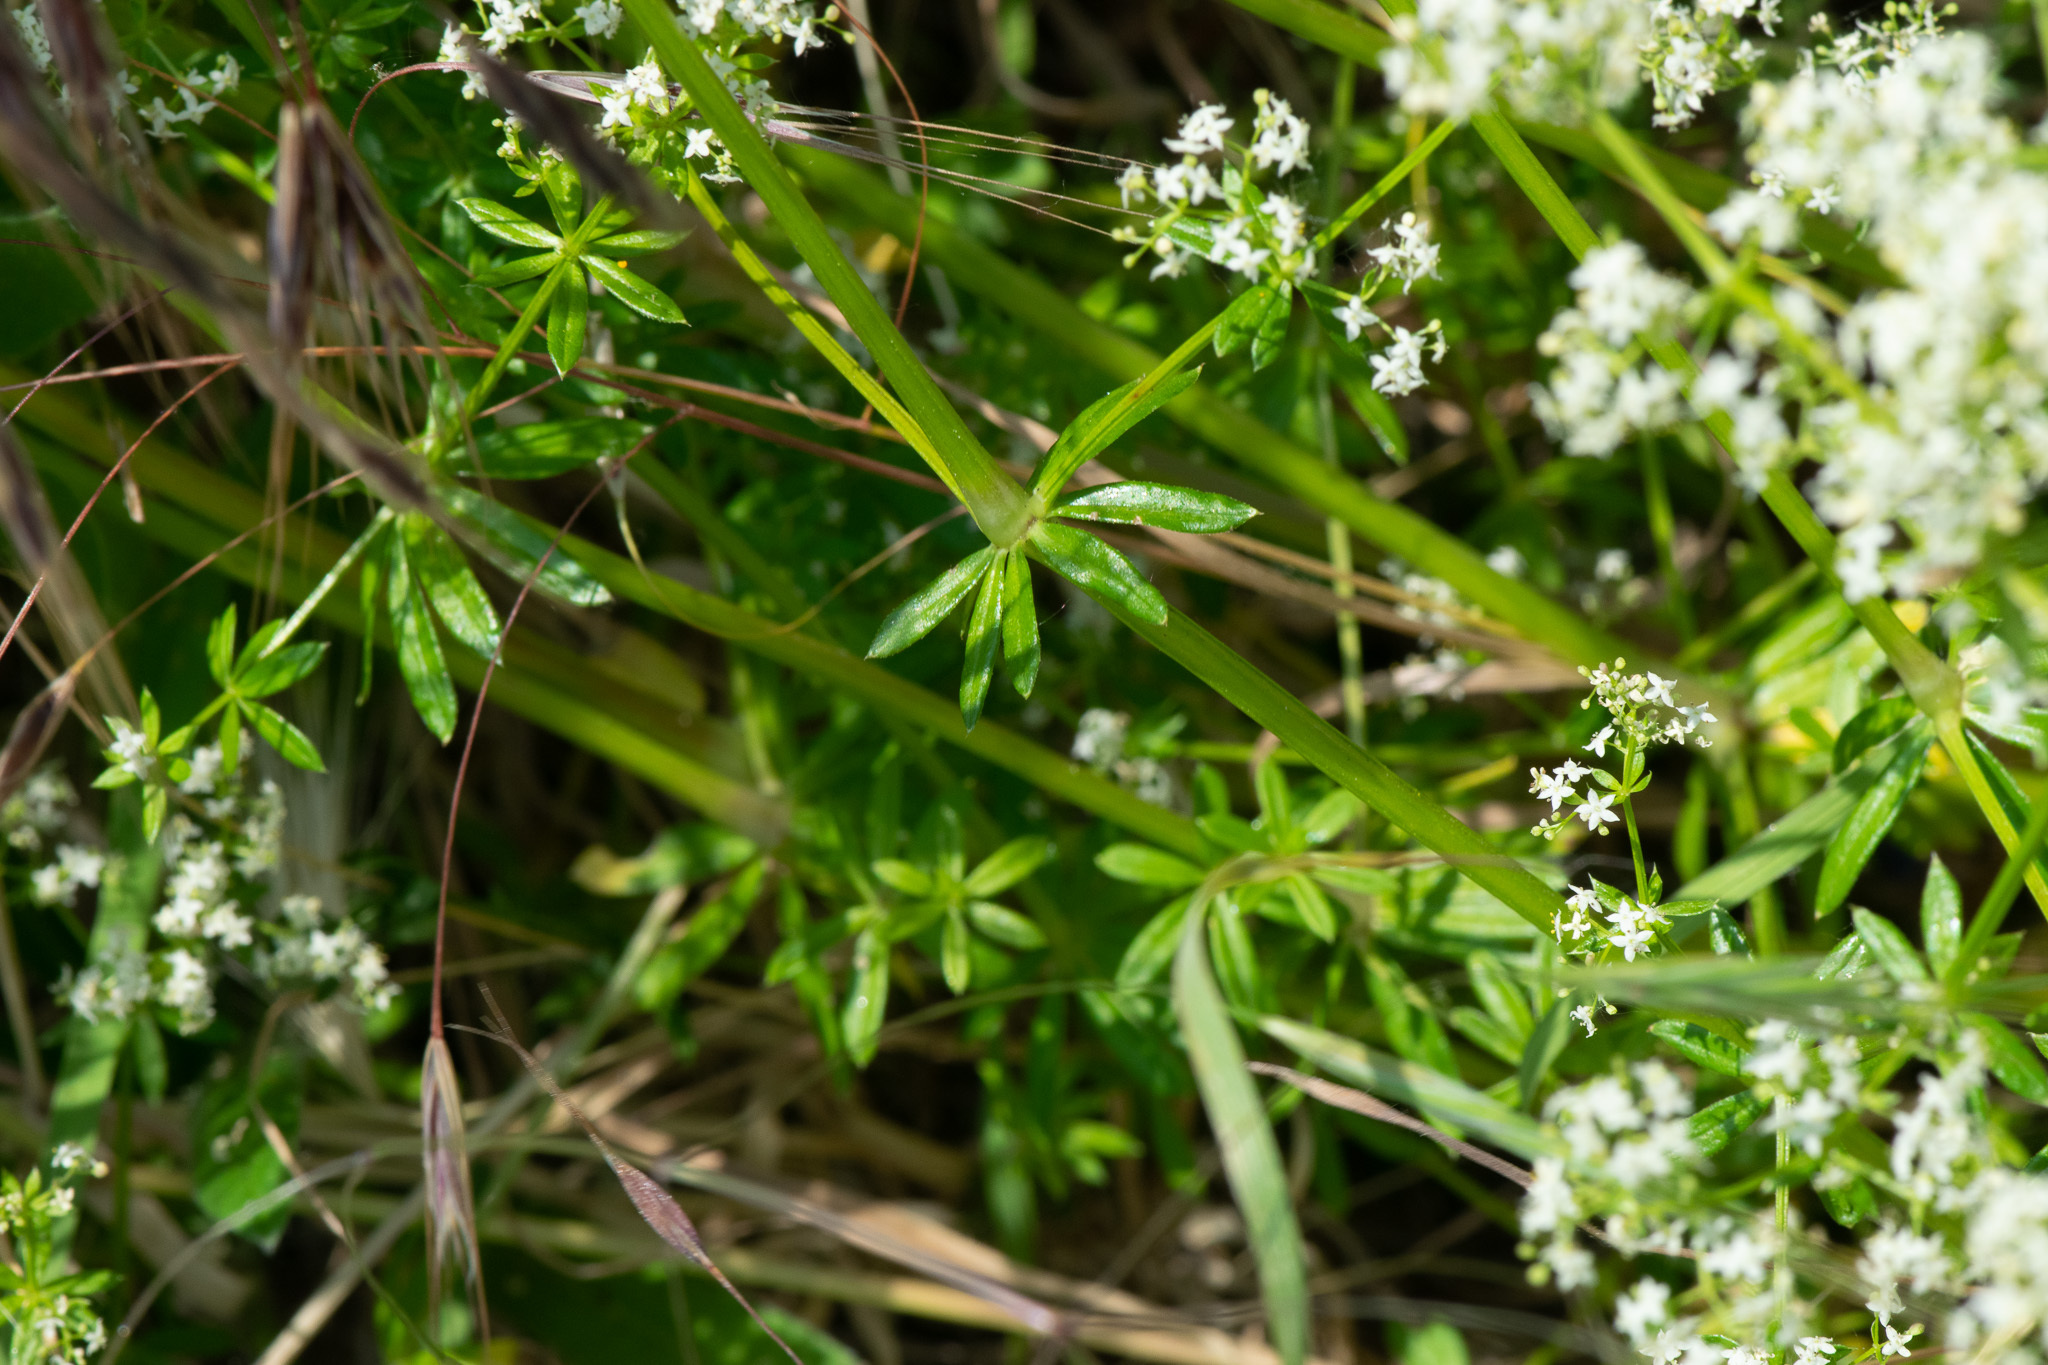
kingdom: Plantae
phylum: Tracheophyta
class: Magnoliopsida
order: Gentianales
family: Rubiaceae
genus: Galium
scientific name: Galium album
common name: White bedstraw
